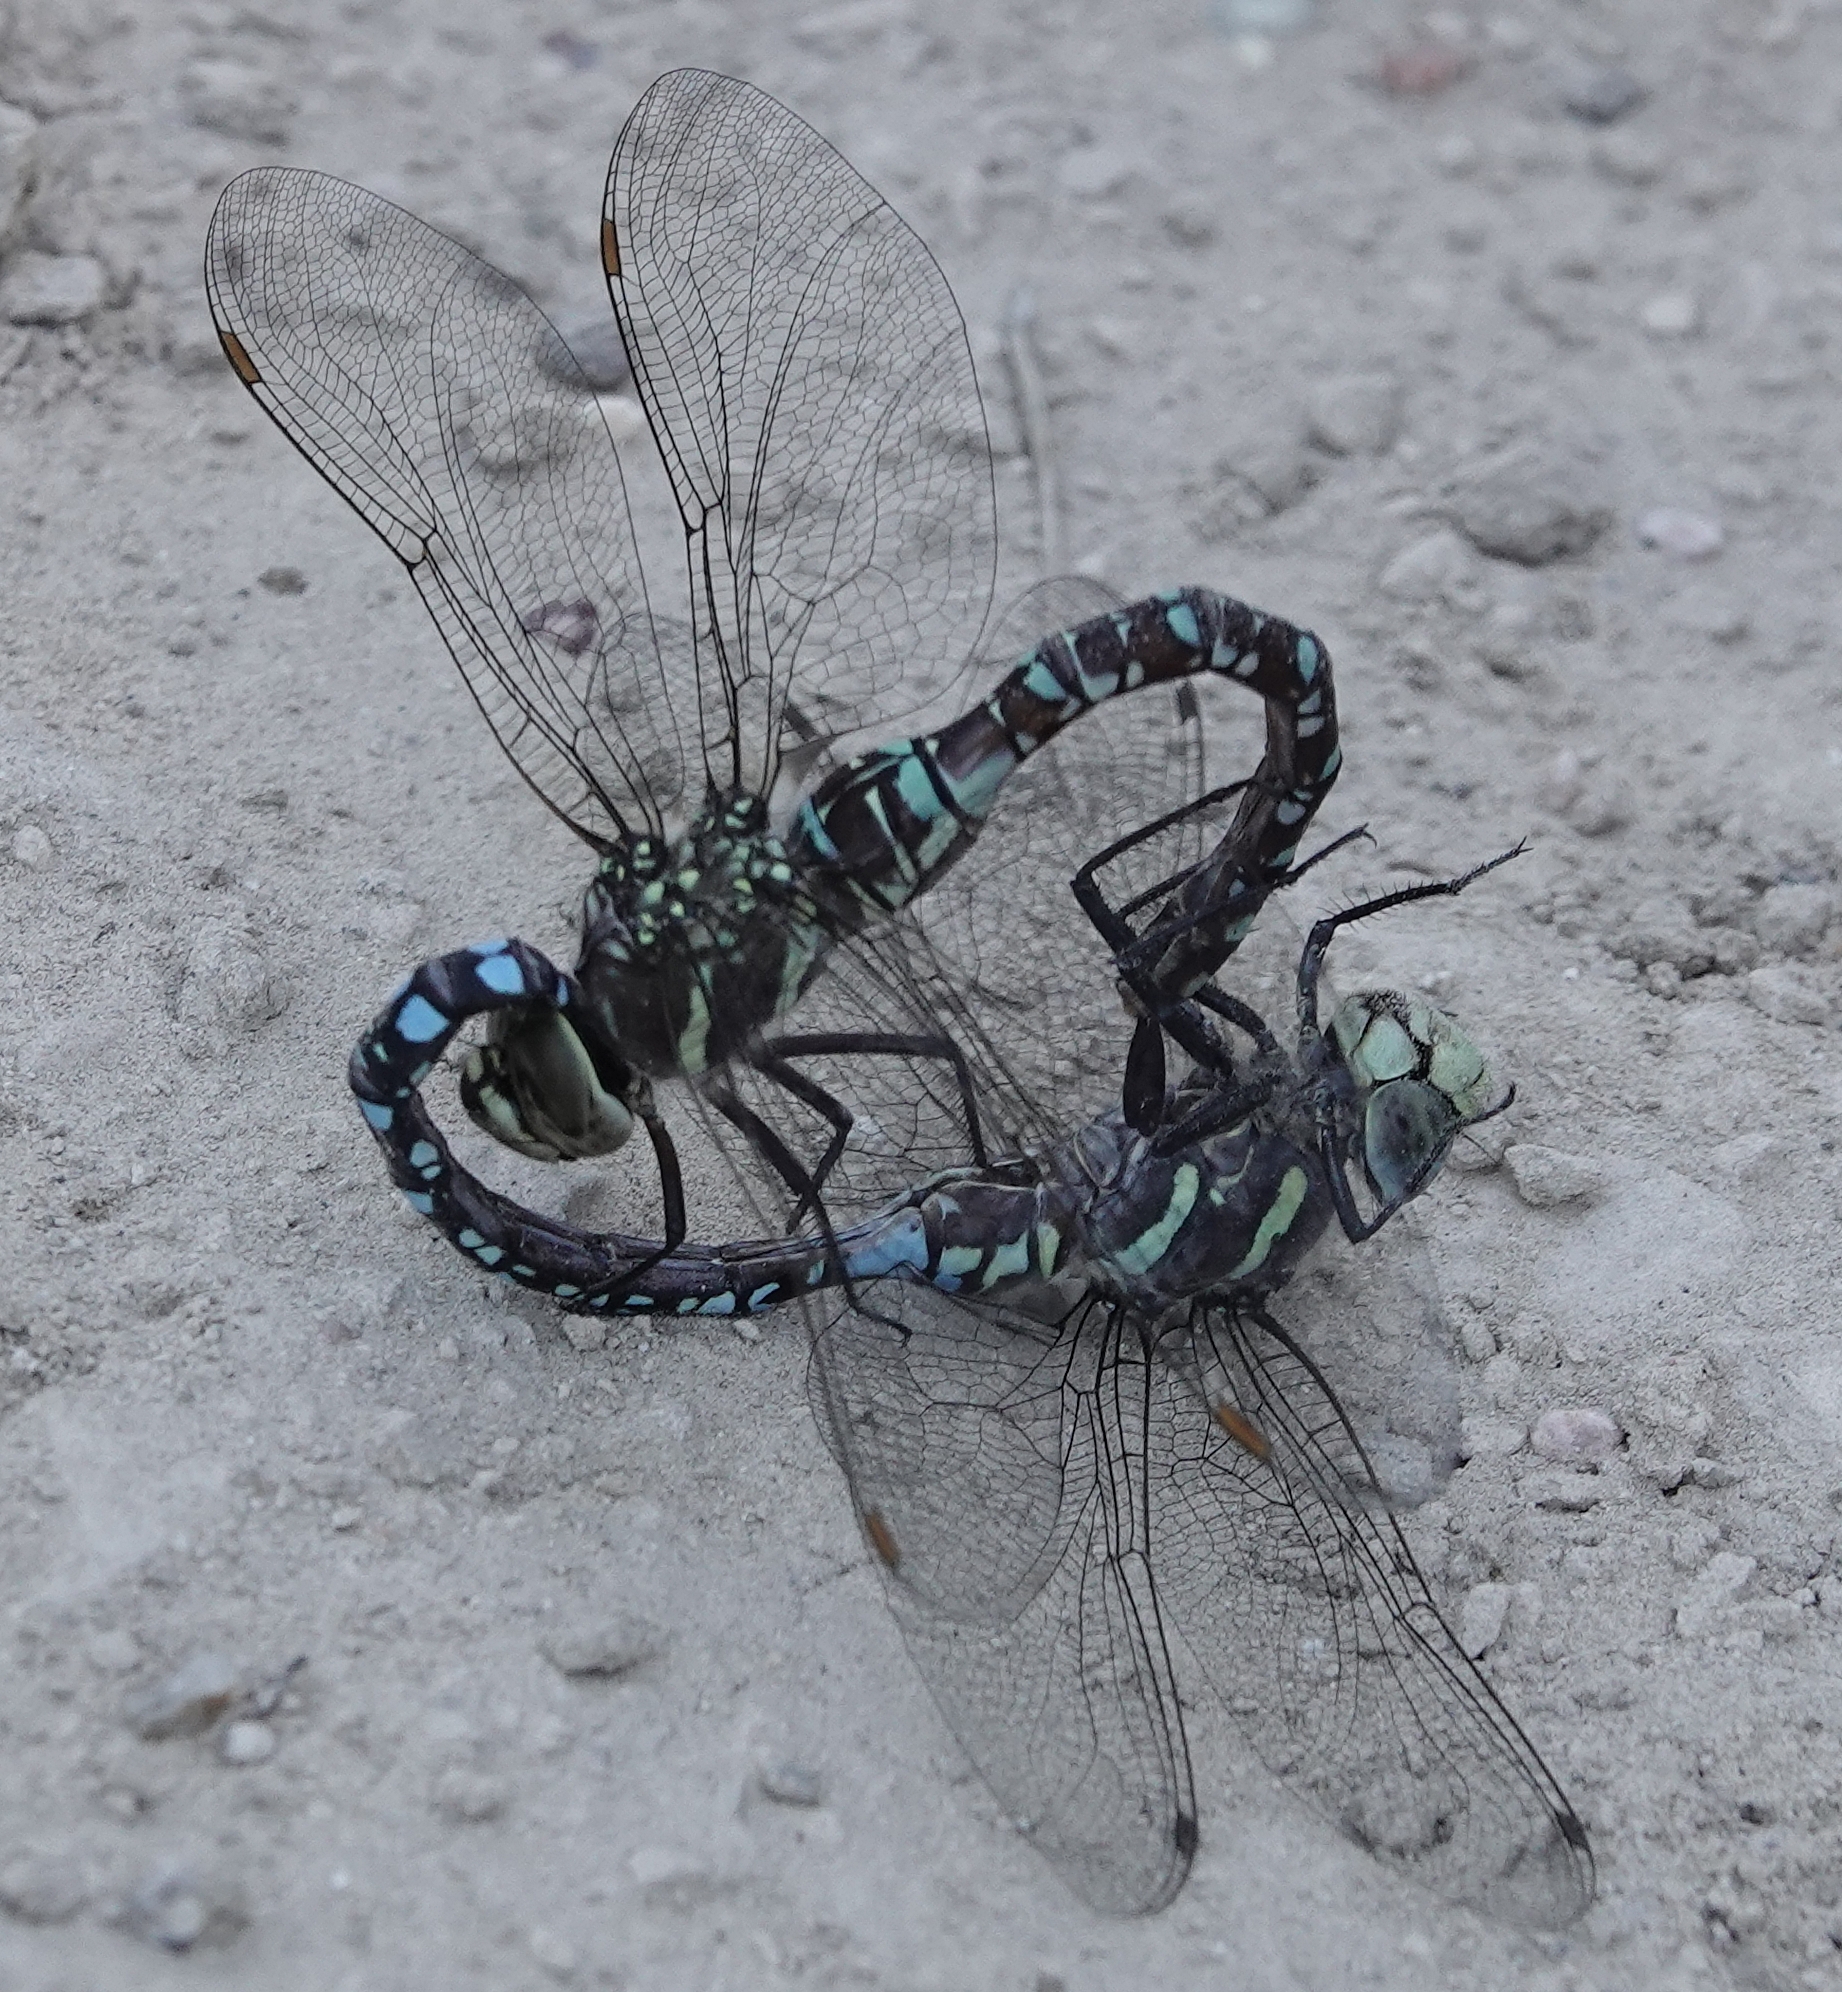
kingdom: Animalia
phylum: Arthropoda
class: Insecta
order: Odonata
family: Aeshnidae
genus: Aeshna
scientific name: Aeshna palmata
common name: Paddle-tailed darner
